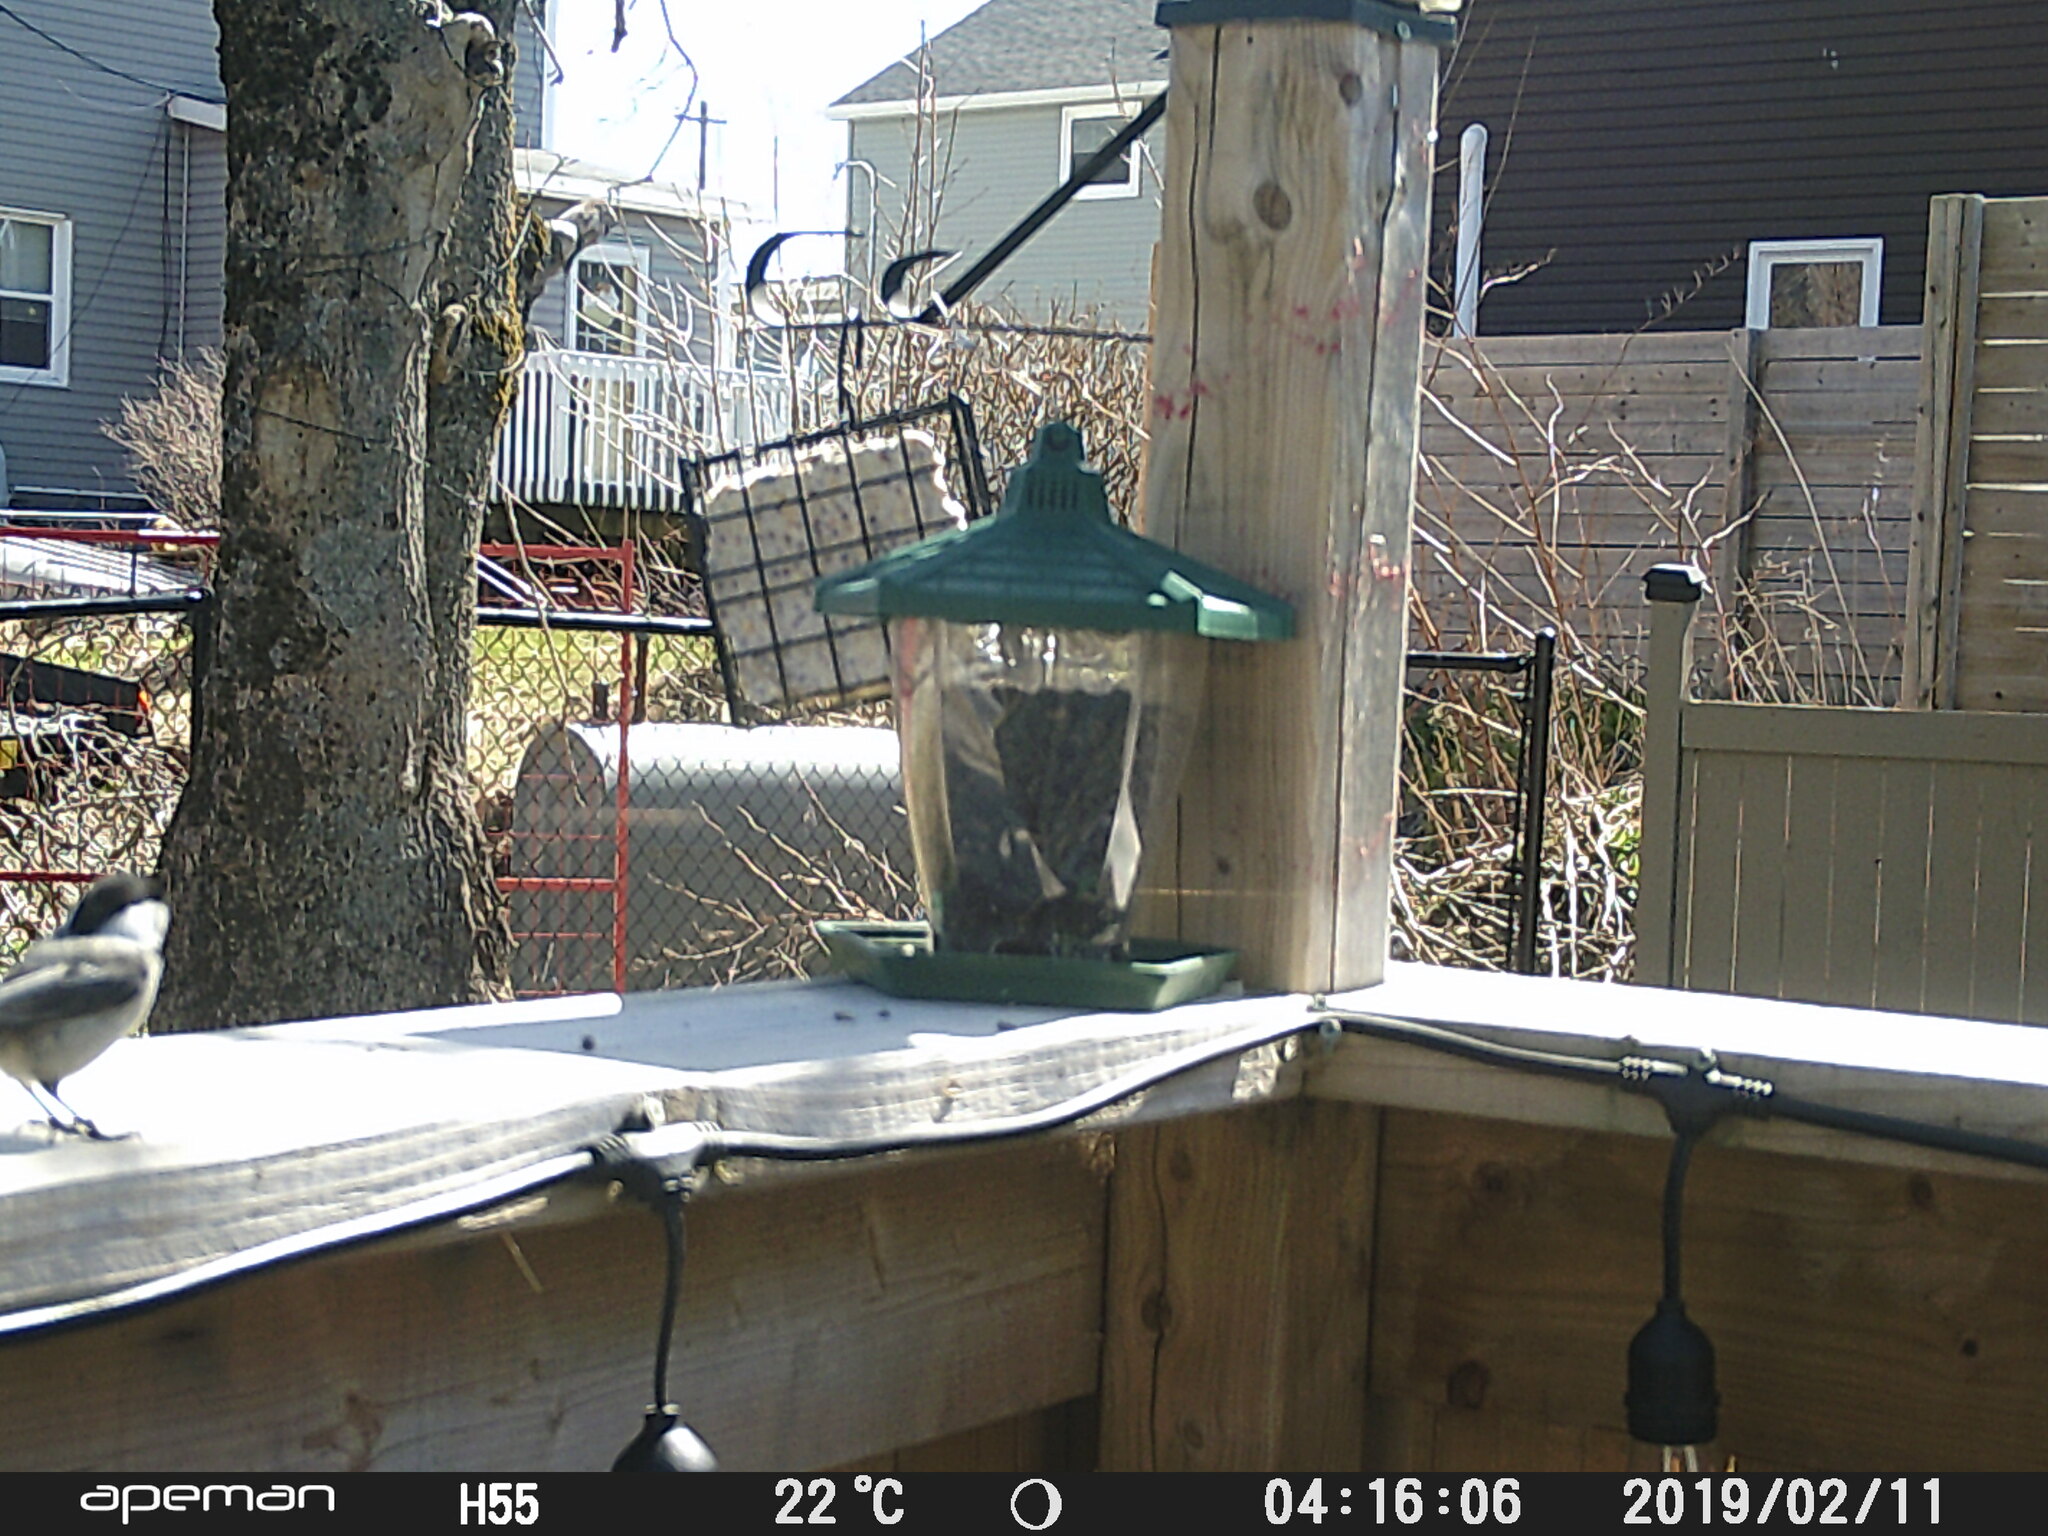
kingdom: Animalia
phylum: Chordata
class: Aves
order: Passeriformes
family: Paridae
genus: Poecile
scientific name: Poecile atricapillus
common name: Black-capped chickadee
